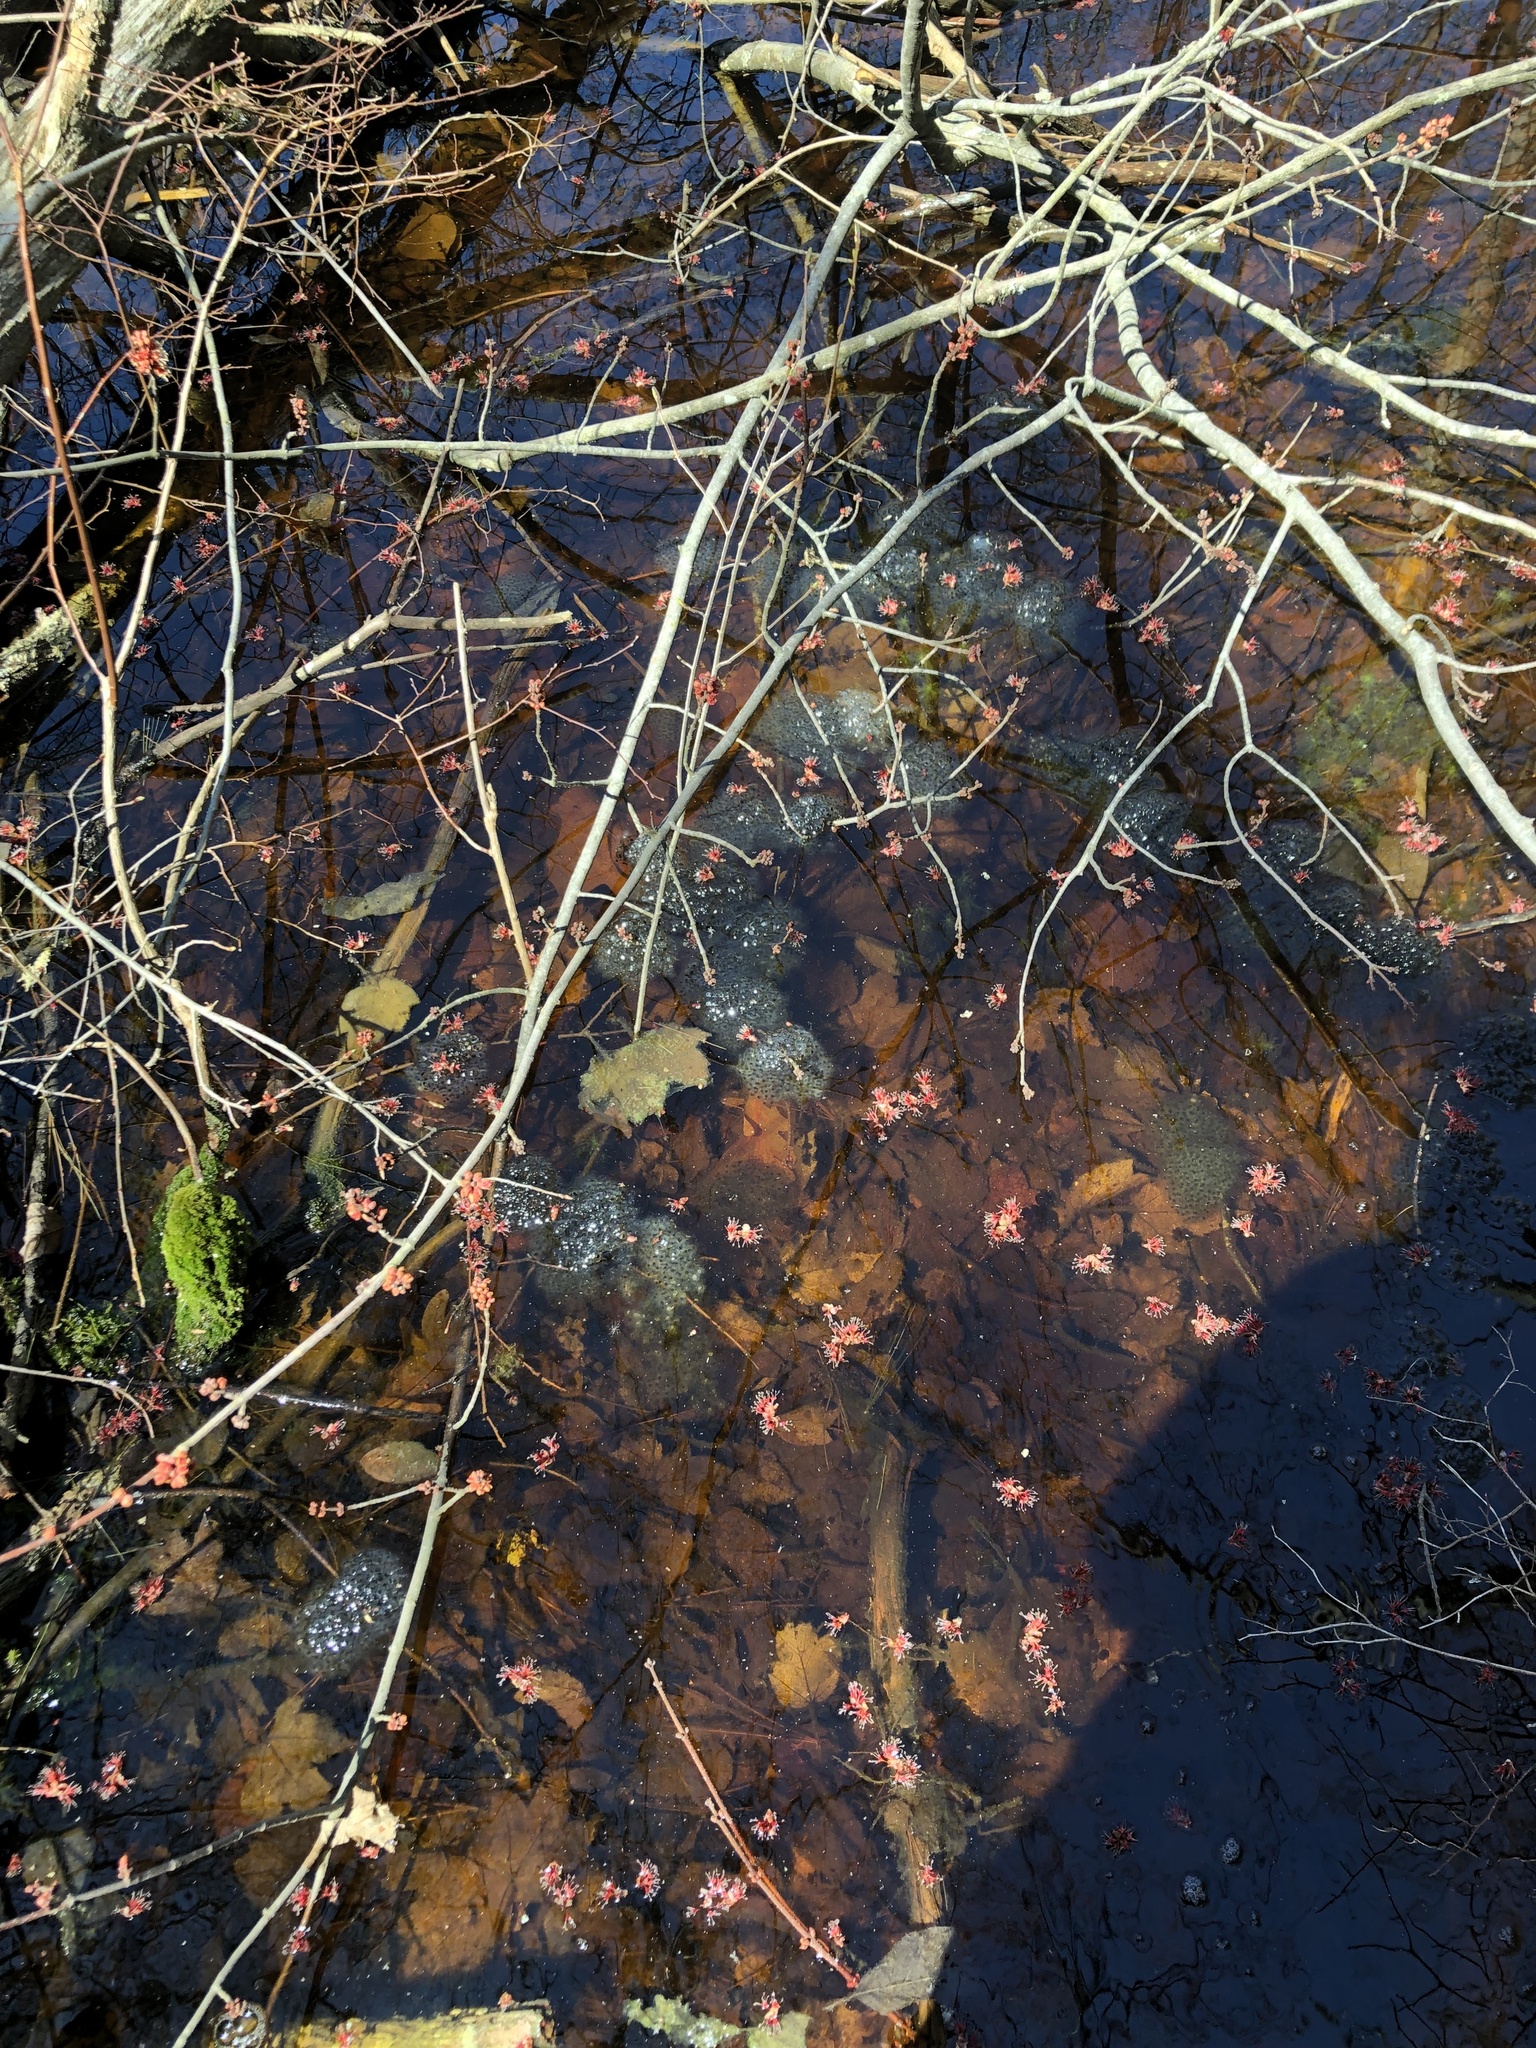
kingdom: Animalia
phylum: Chordata
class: Amphibia
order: Anura
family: Ranidae
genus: Lithobates
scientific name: Lithobates sylvaticus
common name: Wood frog
